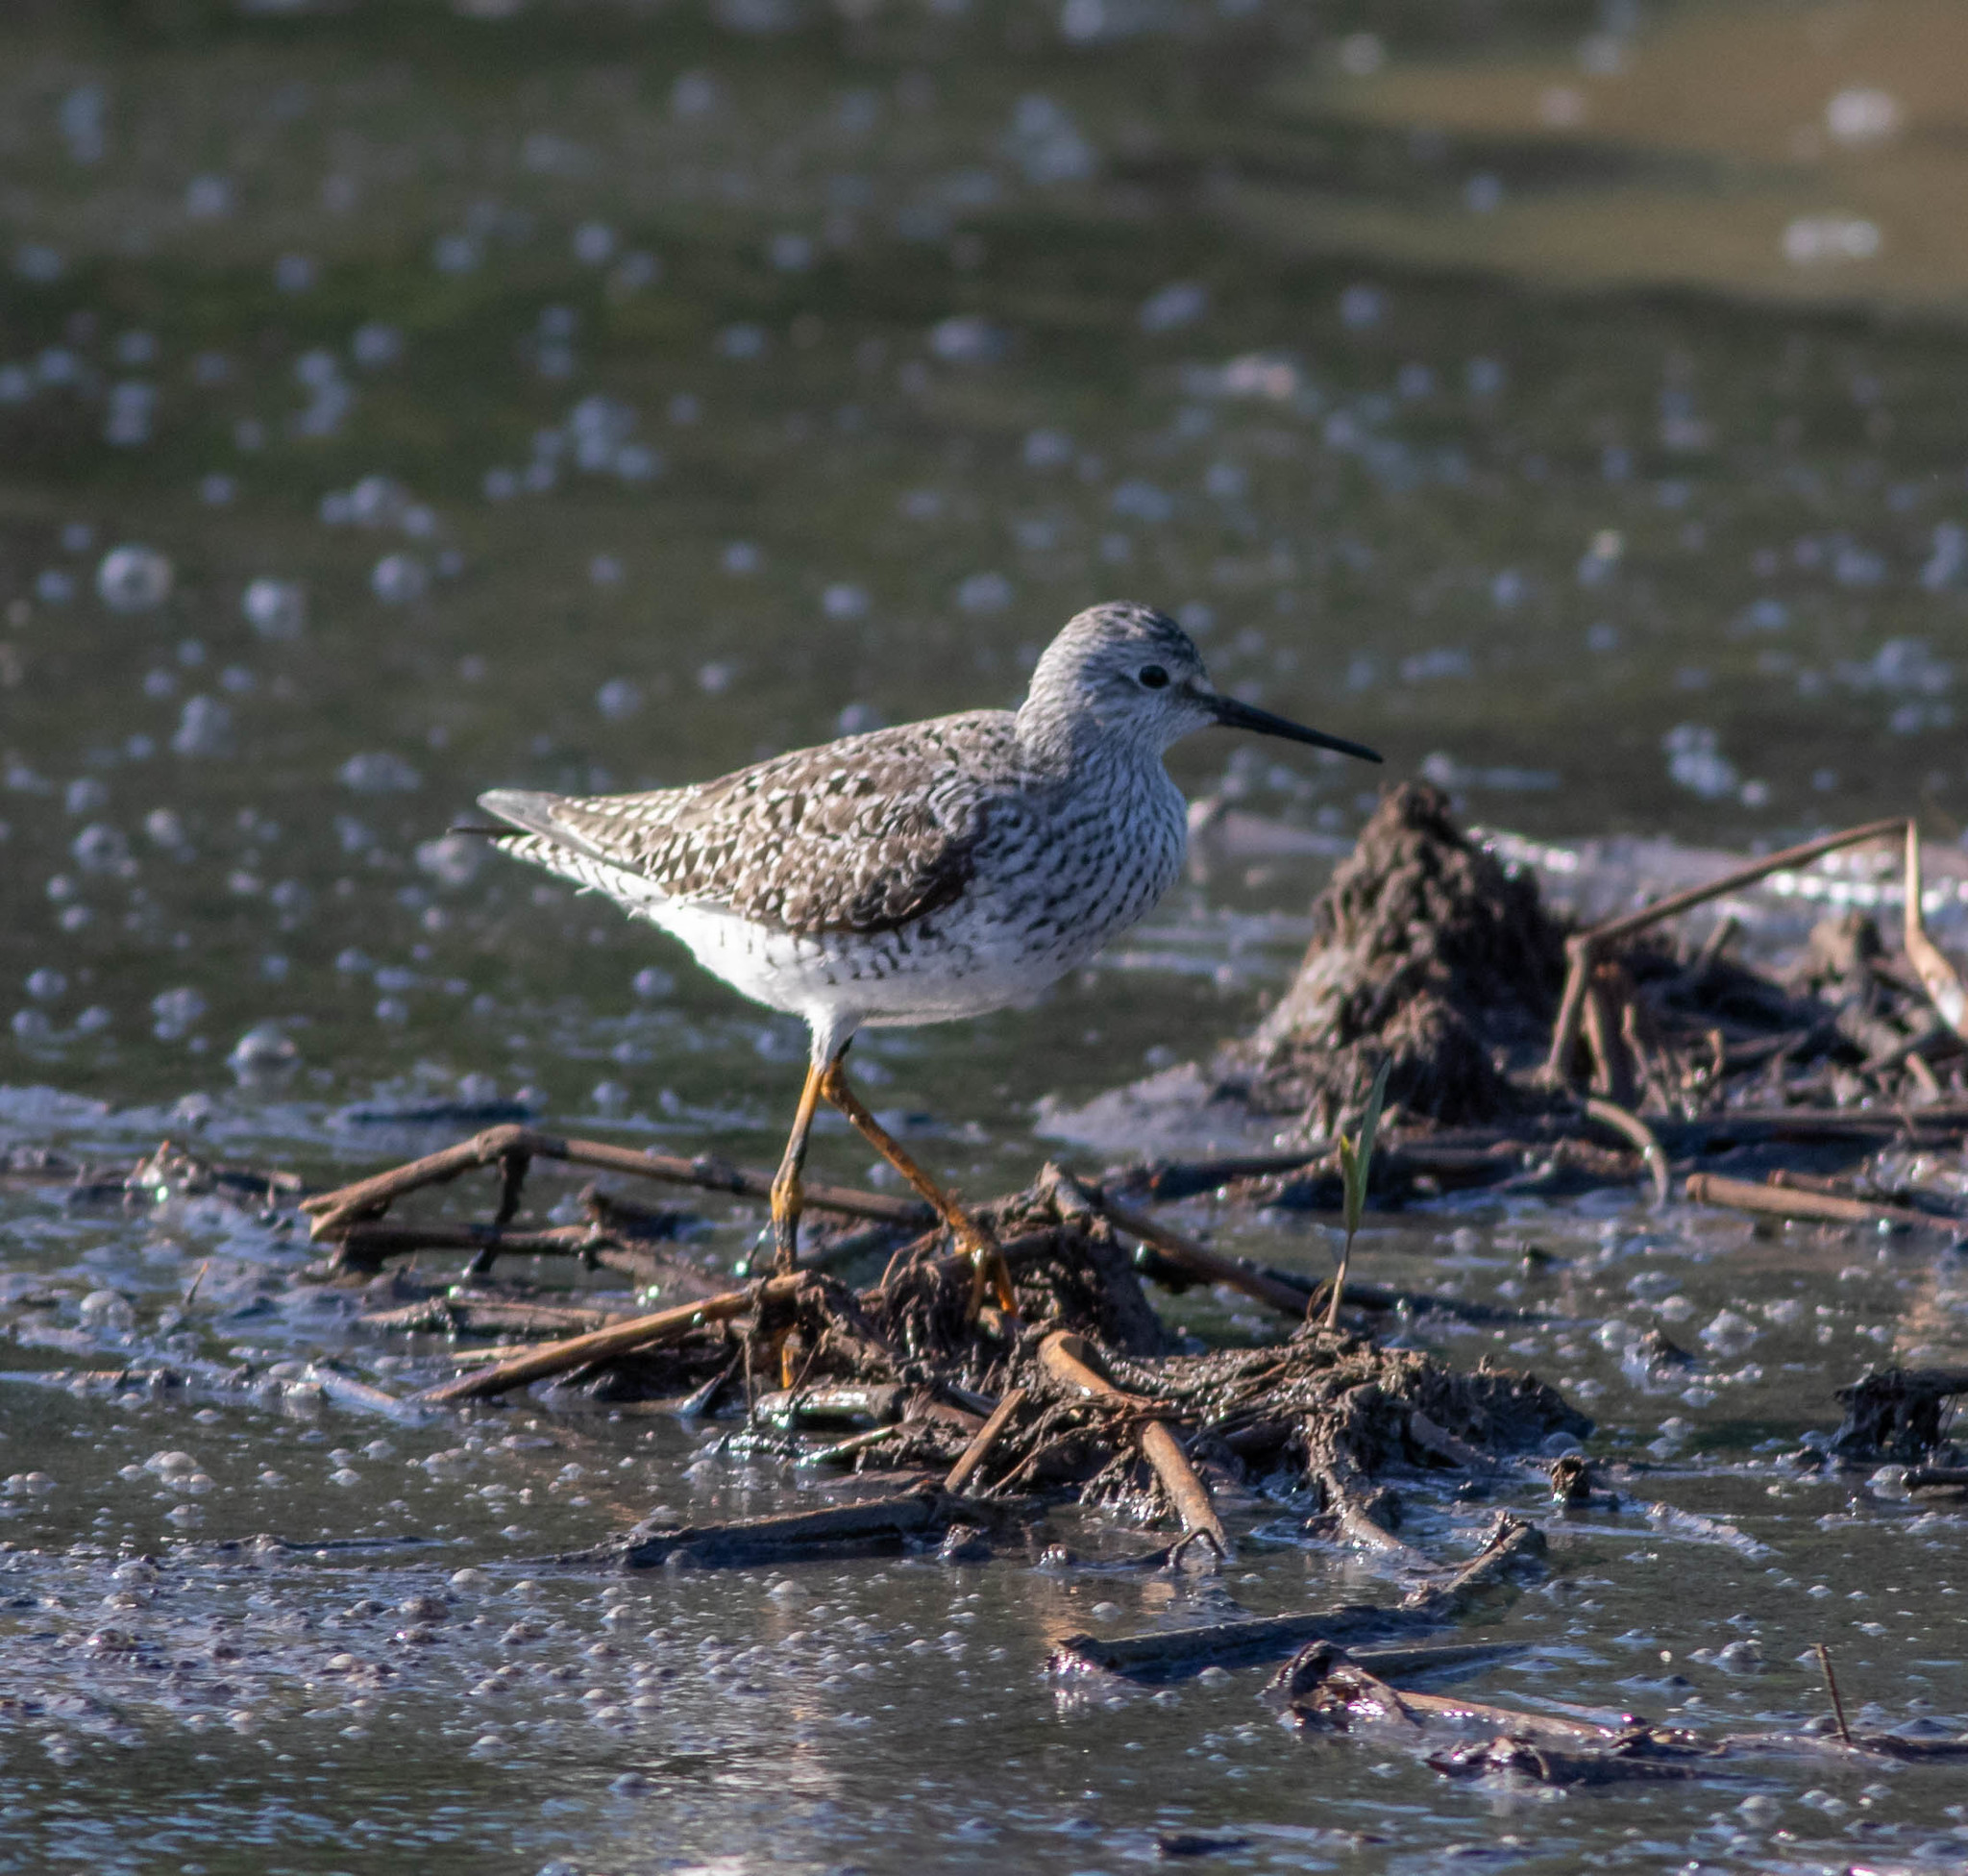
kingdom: Animalia
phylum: Chordata
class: Aves
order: Charadriiformes
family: Scolopacidae
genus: Tringa
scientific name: Tringa flavipes
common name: Lesser yellowlegs
